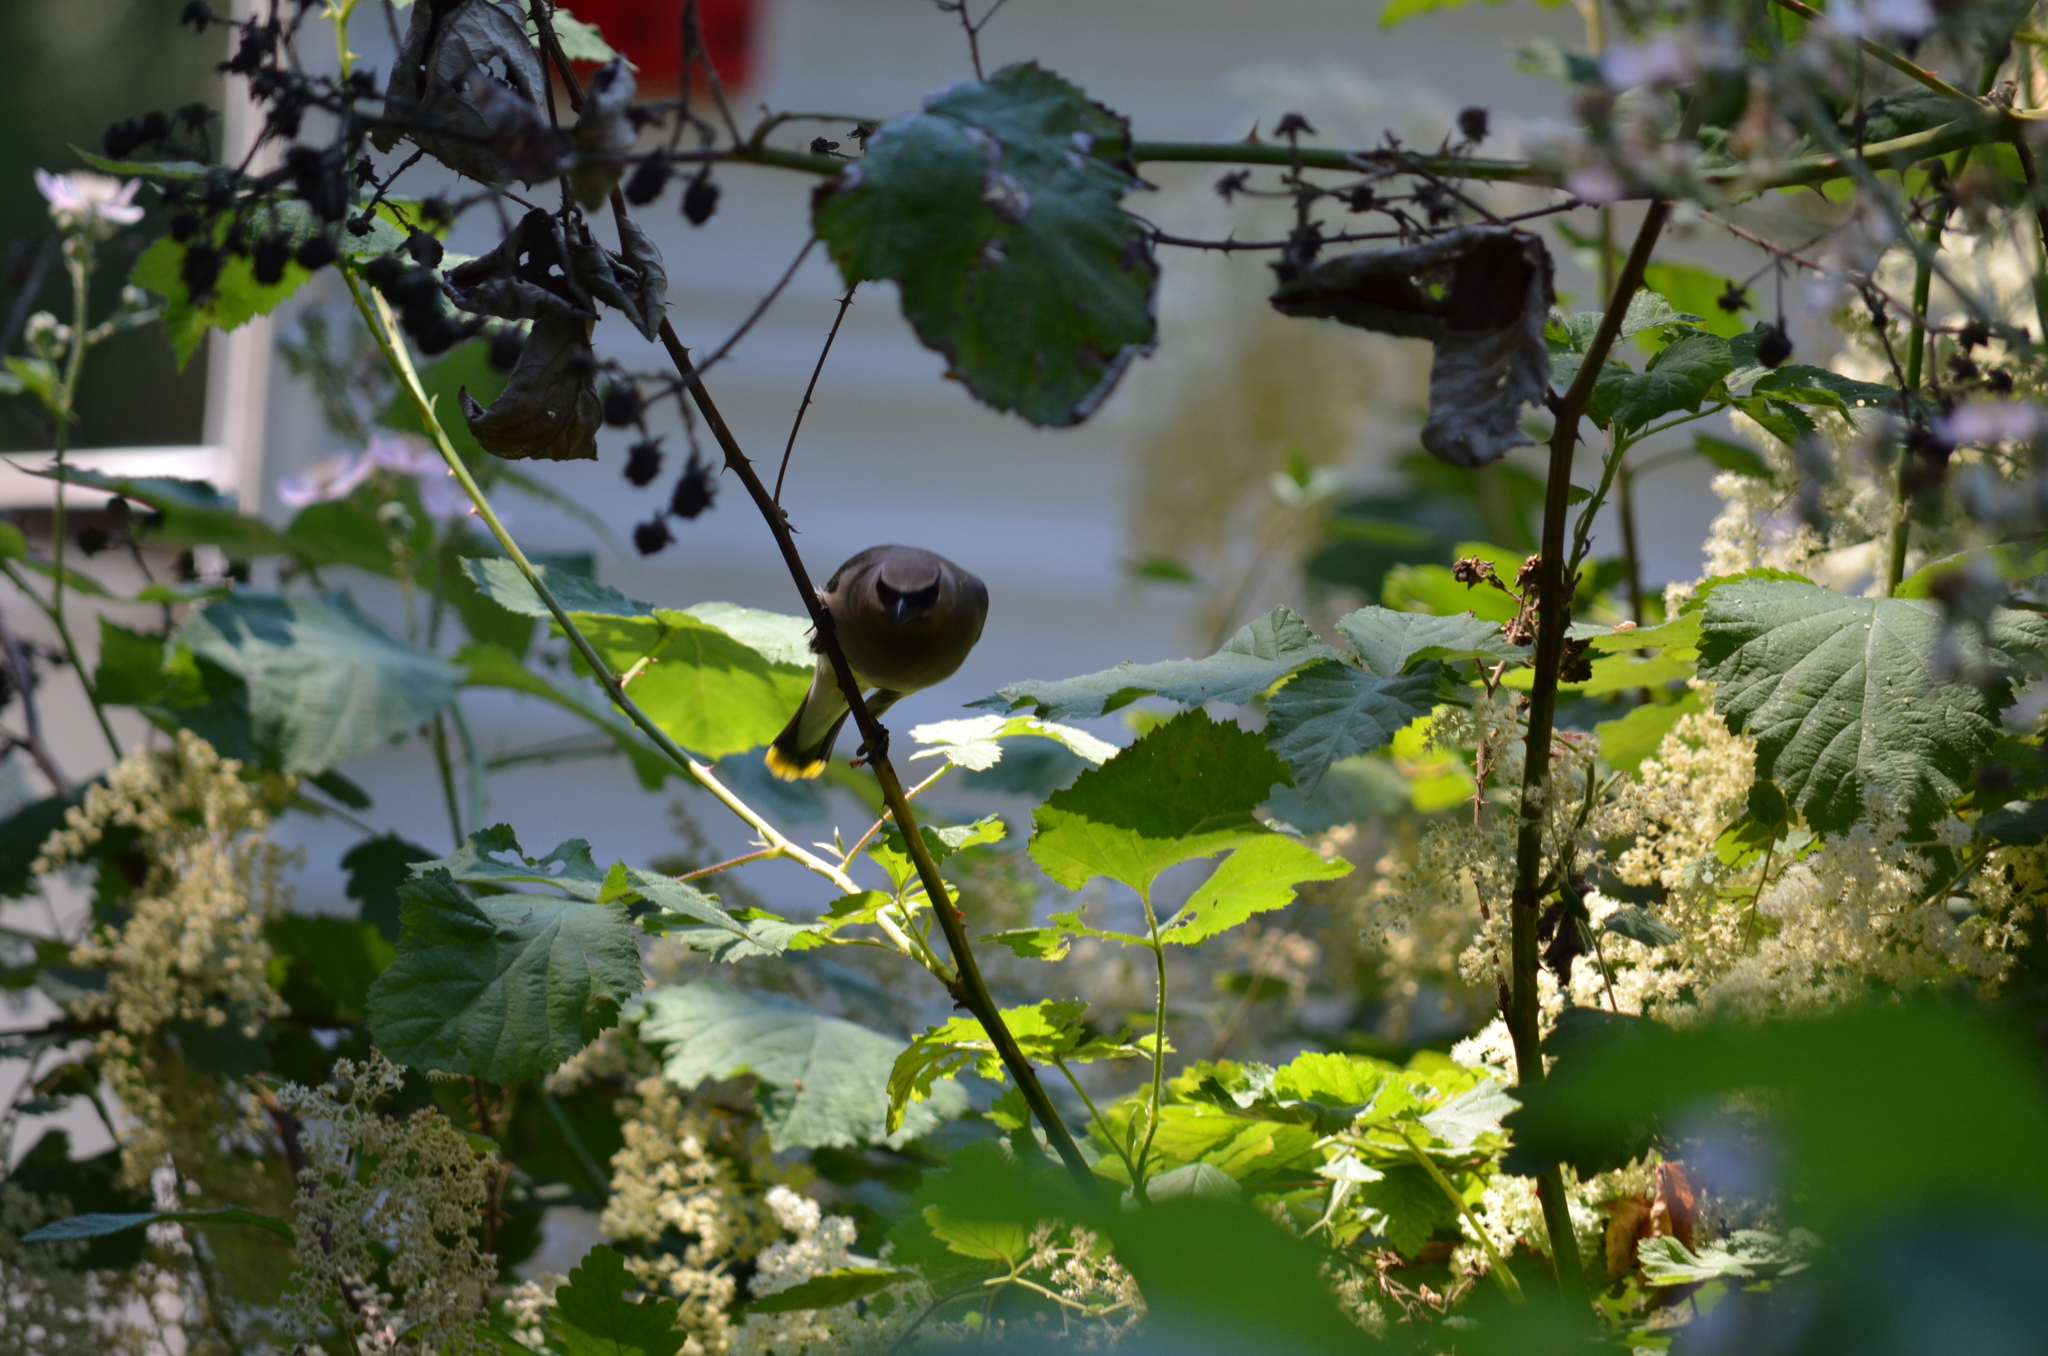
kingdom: Animalia
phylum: Chordata
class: Aves
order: Passeriformes
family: Bombycillidae
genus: Bombycilla
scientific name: Bombycilla cedrorum
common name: Cedar waxwing
